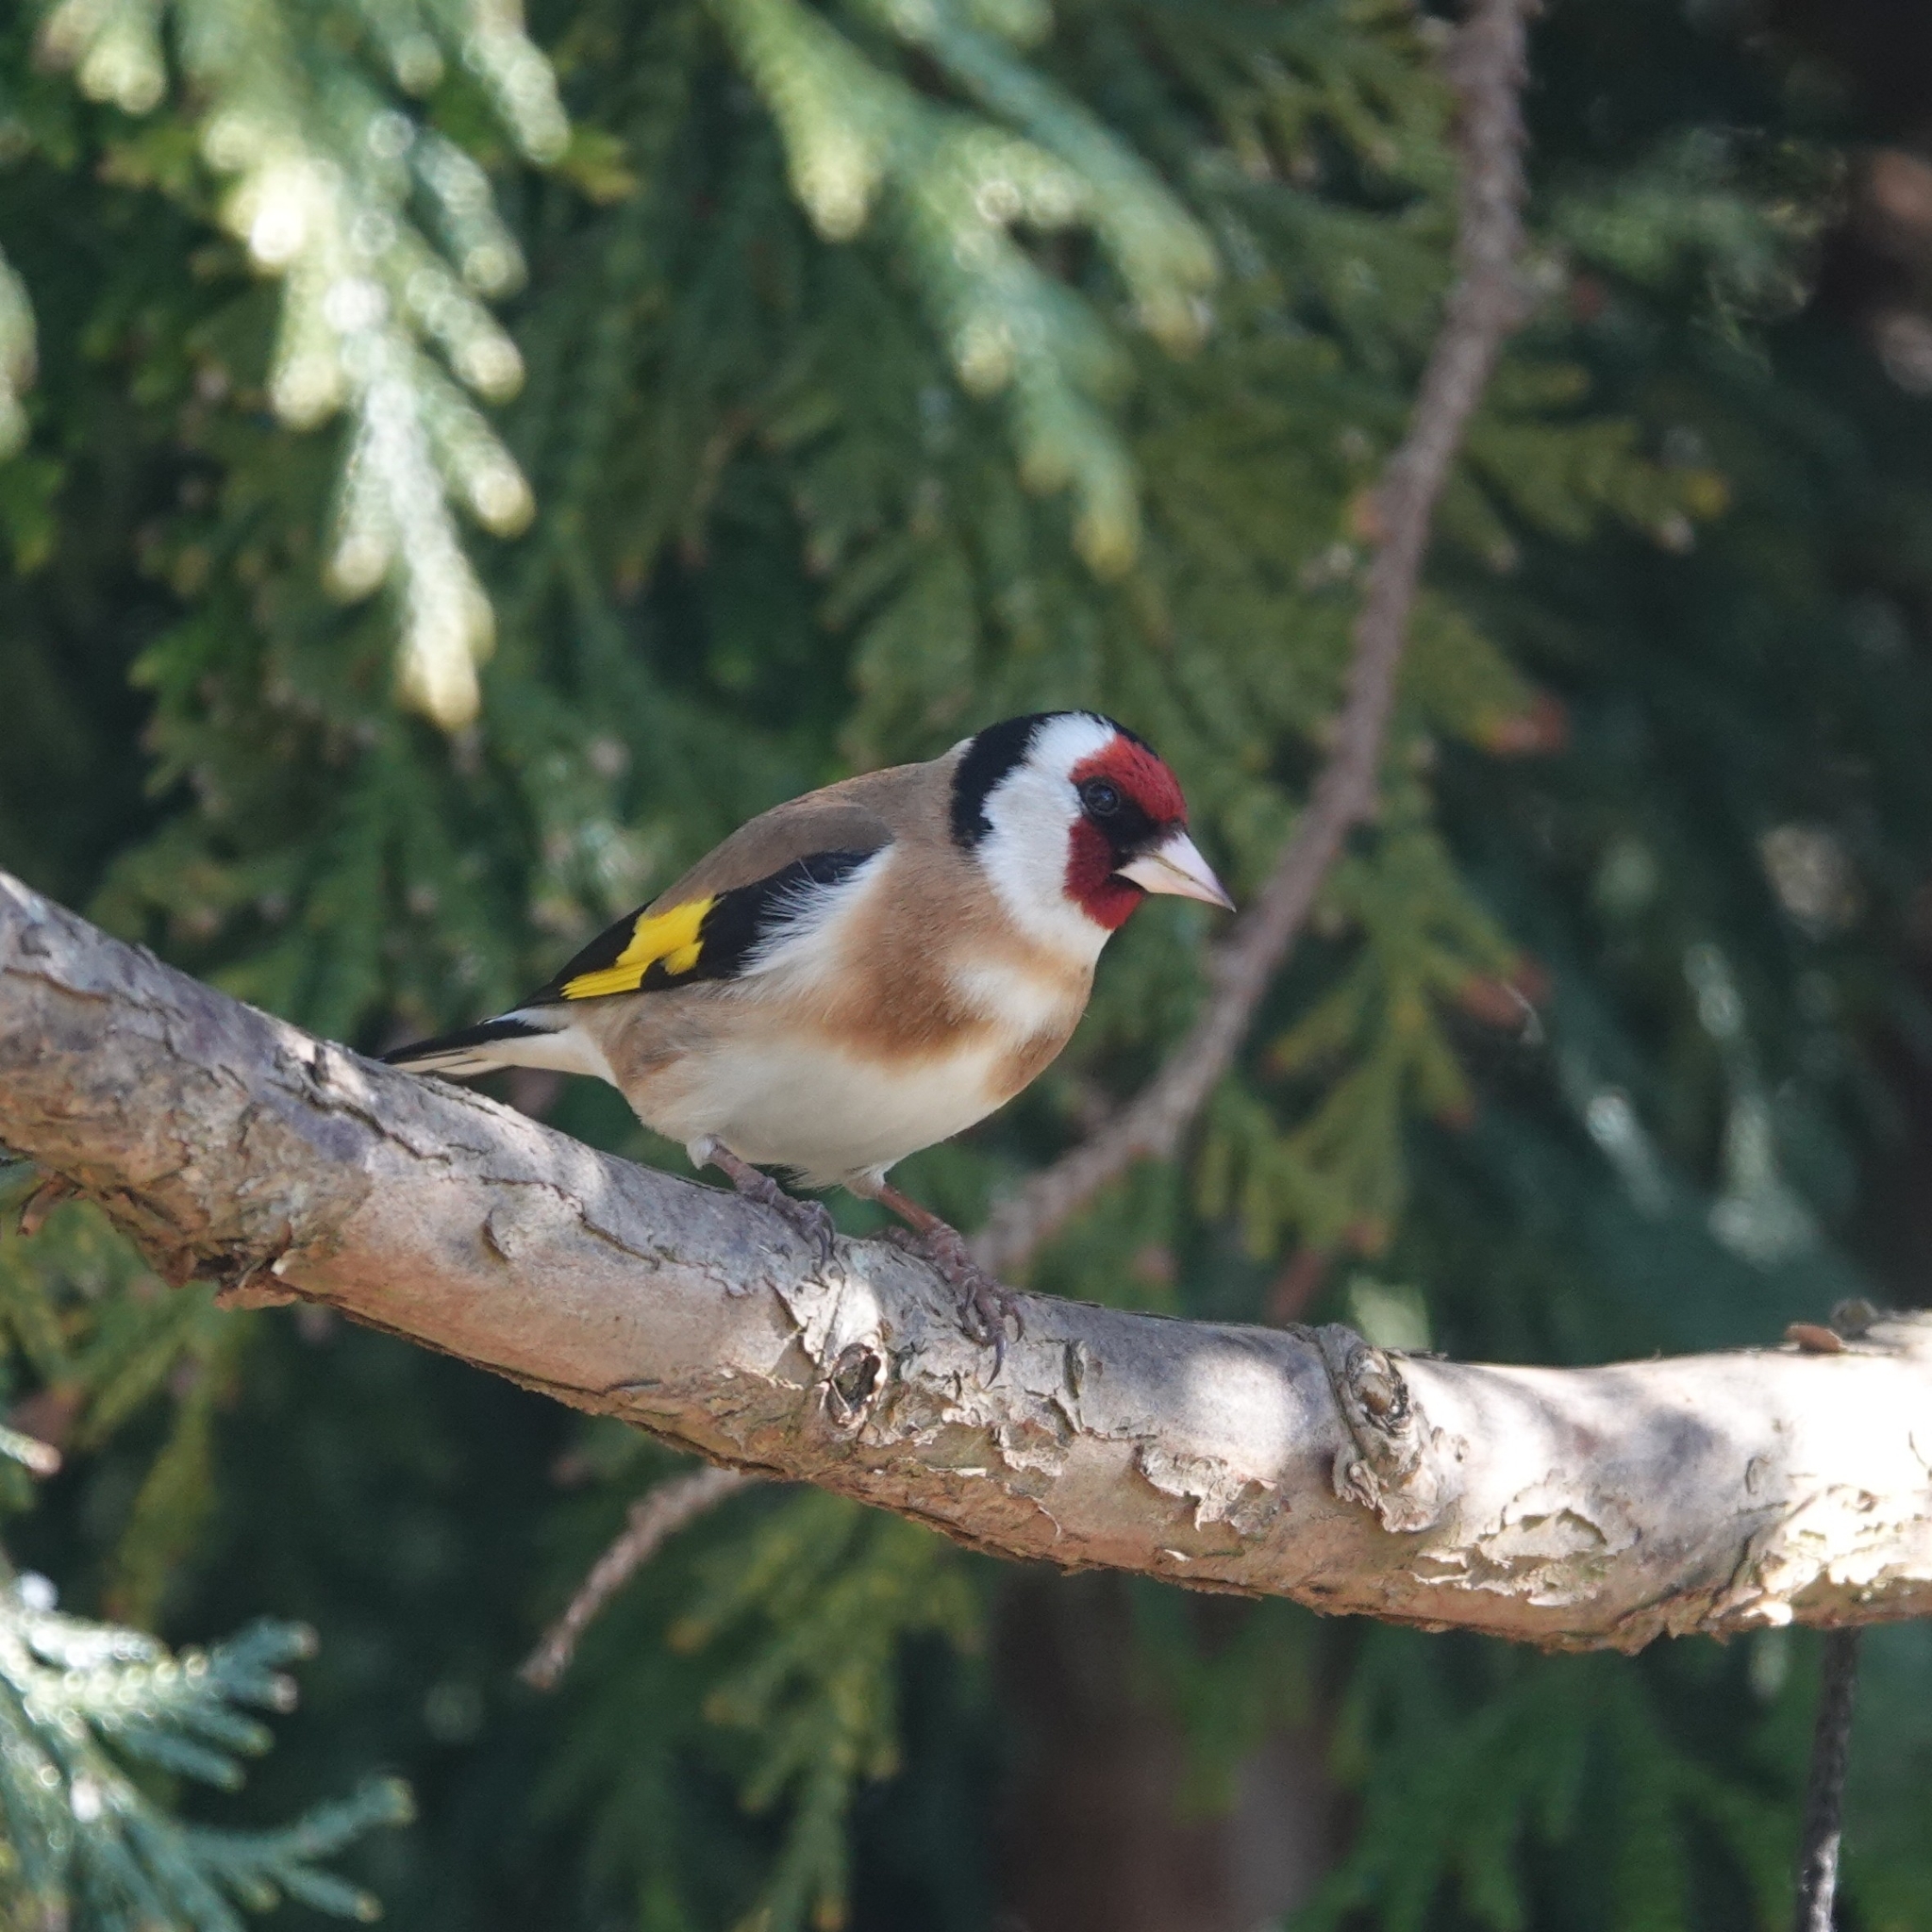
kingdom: Animalia
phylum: Chordata
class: Aves
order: Passeriformes
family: Fringillidae
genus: Carduelis
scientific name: Carduelis carduelis
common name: European goldfinch
